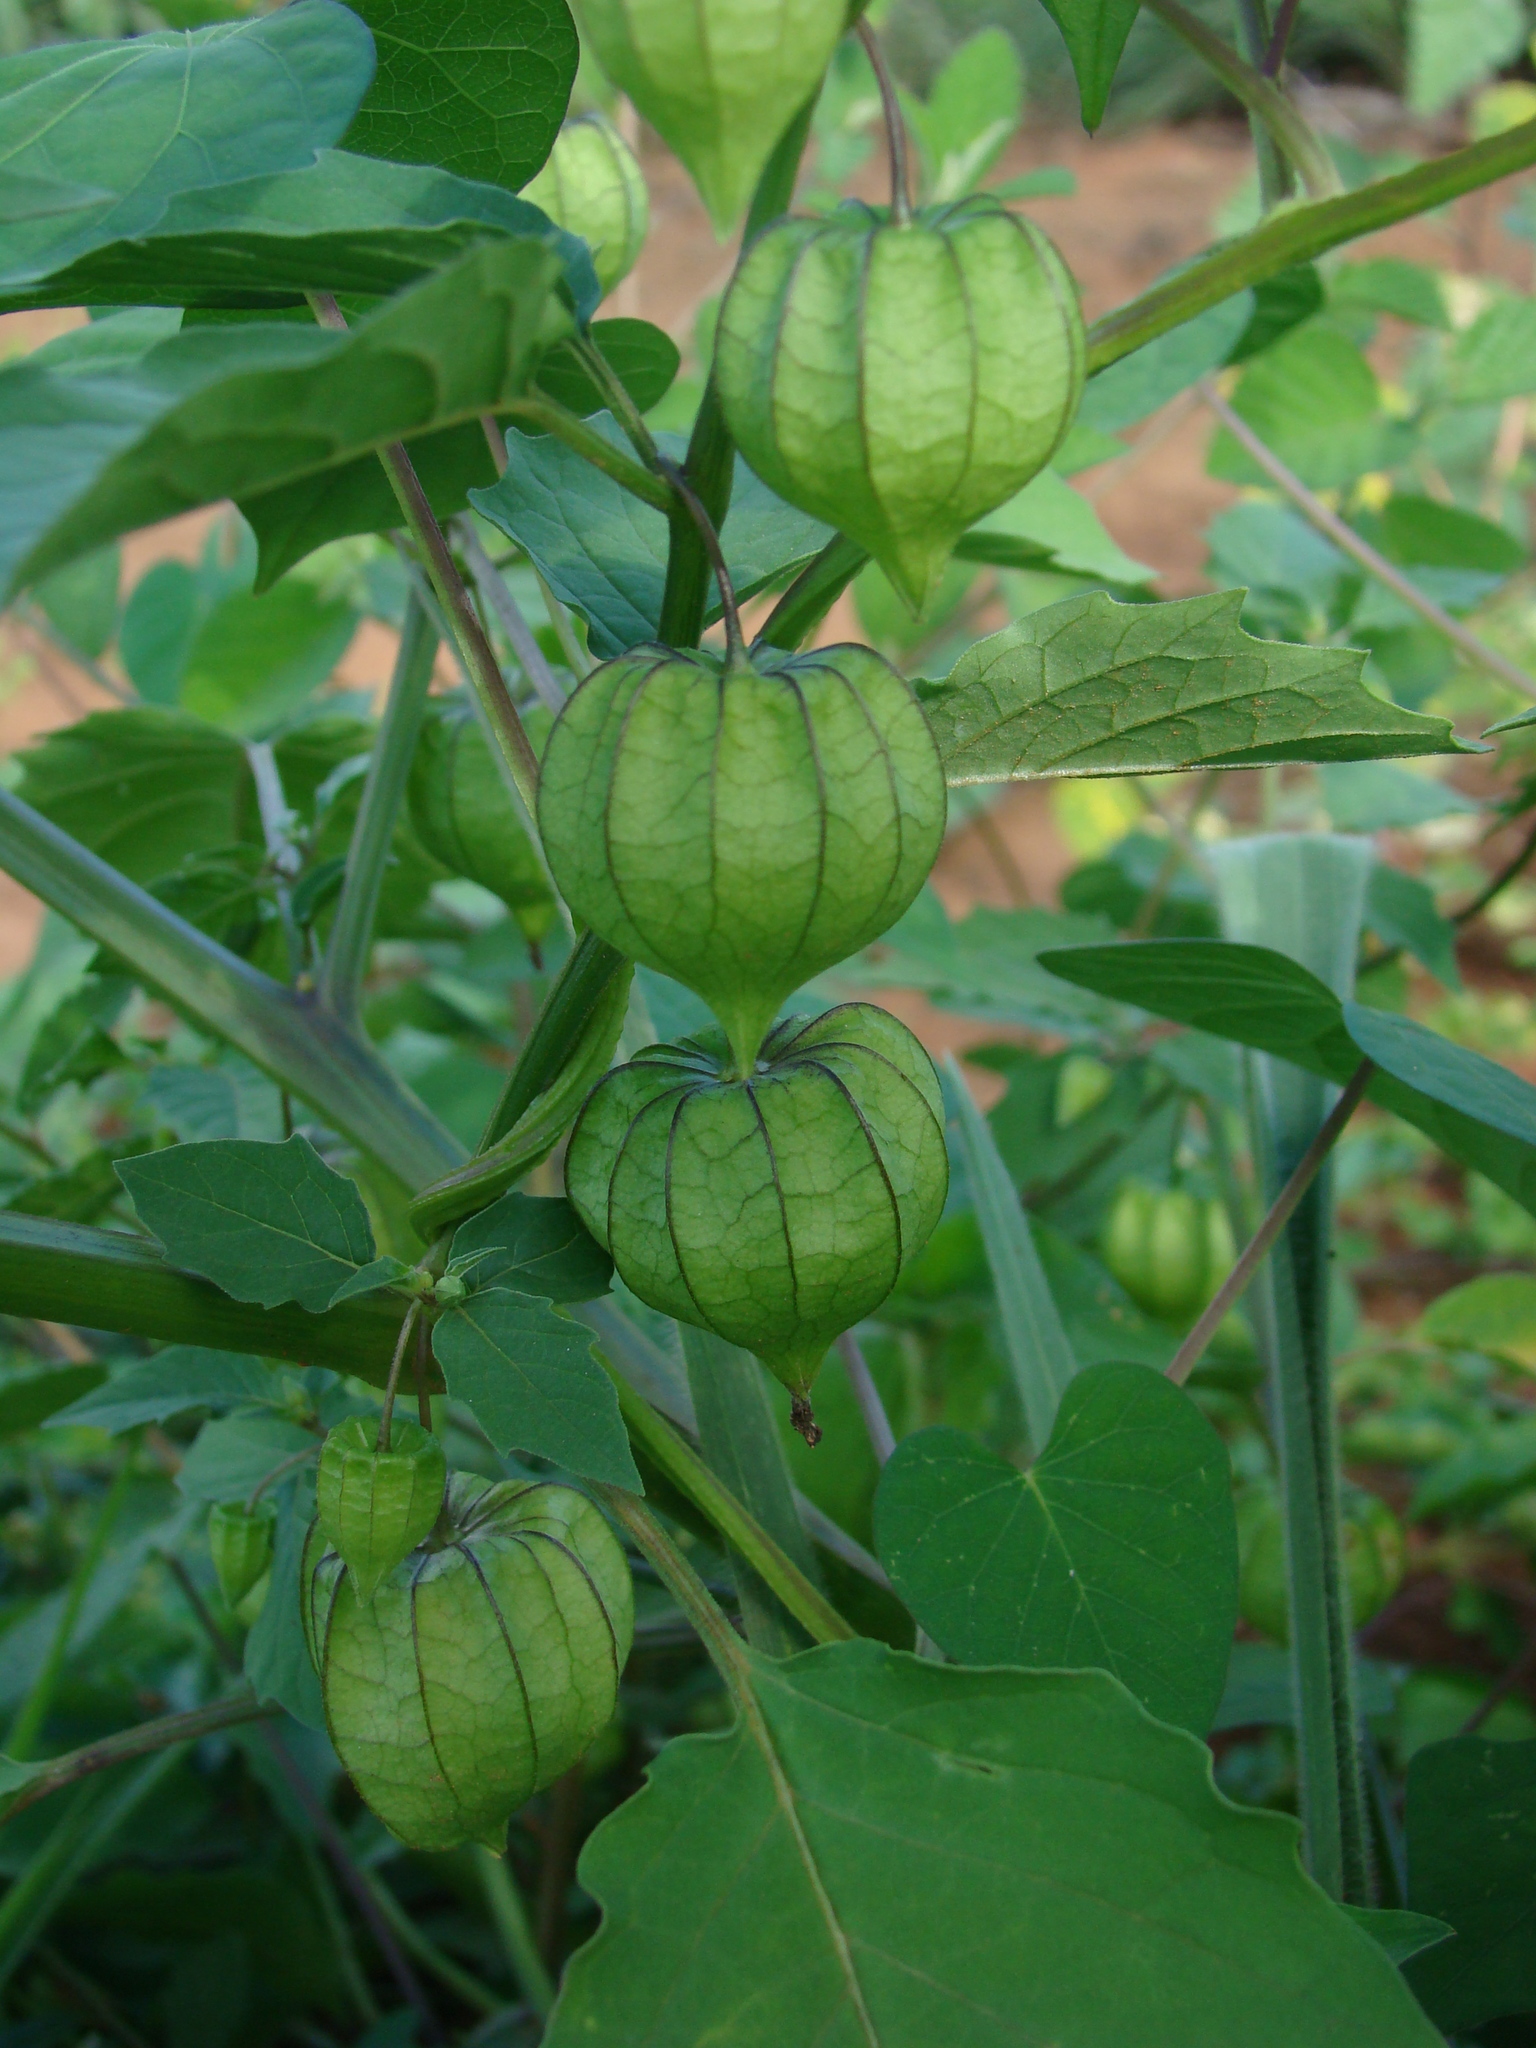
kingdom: Plantae
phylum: Tracheophyta
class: Magnoliopsida
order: Solanales
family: Solanaceae
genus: Physalis
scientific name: Physalis angulata
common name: Angular winter-cherry
